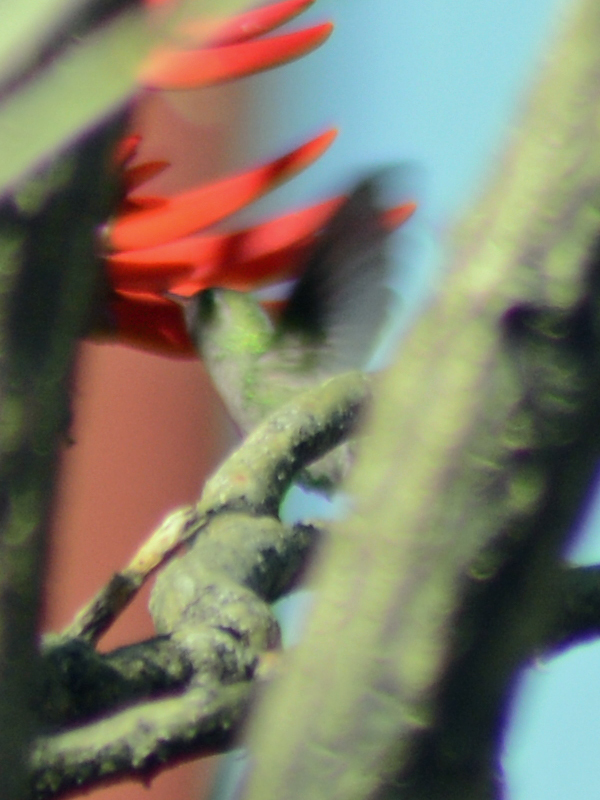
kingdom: Animalia
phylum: Chordata
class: Aves
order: Apodiformes
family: Trochilidae
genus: Cynanthus
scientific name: Cynanthus latirostris
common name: Broad-billed hummingbird
